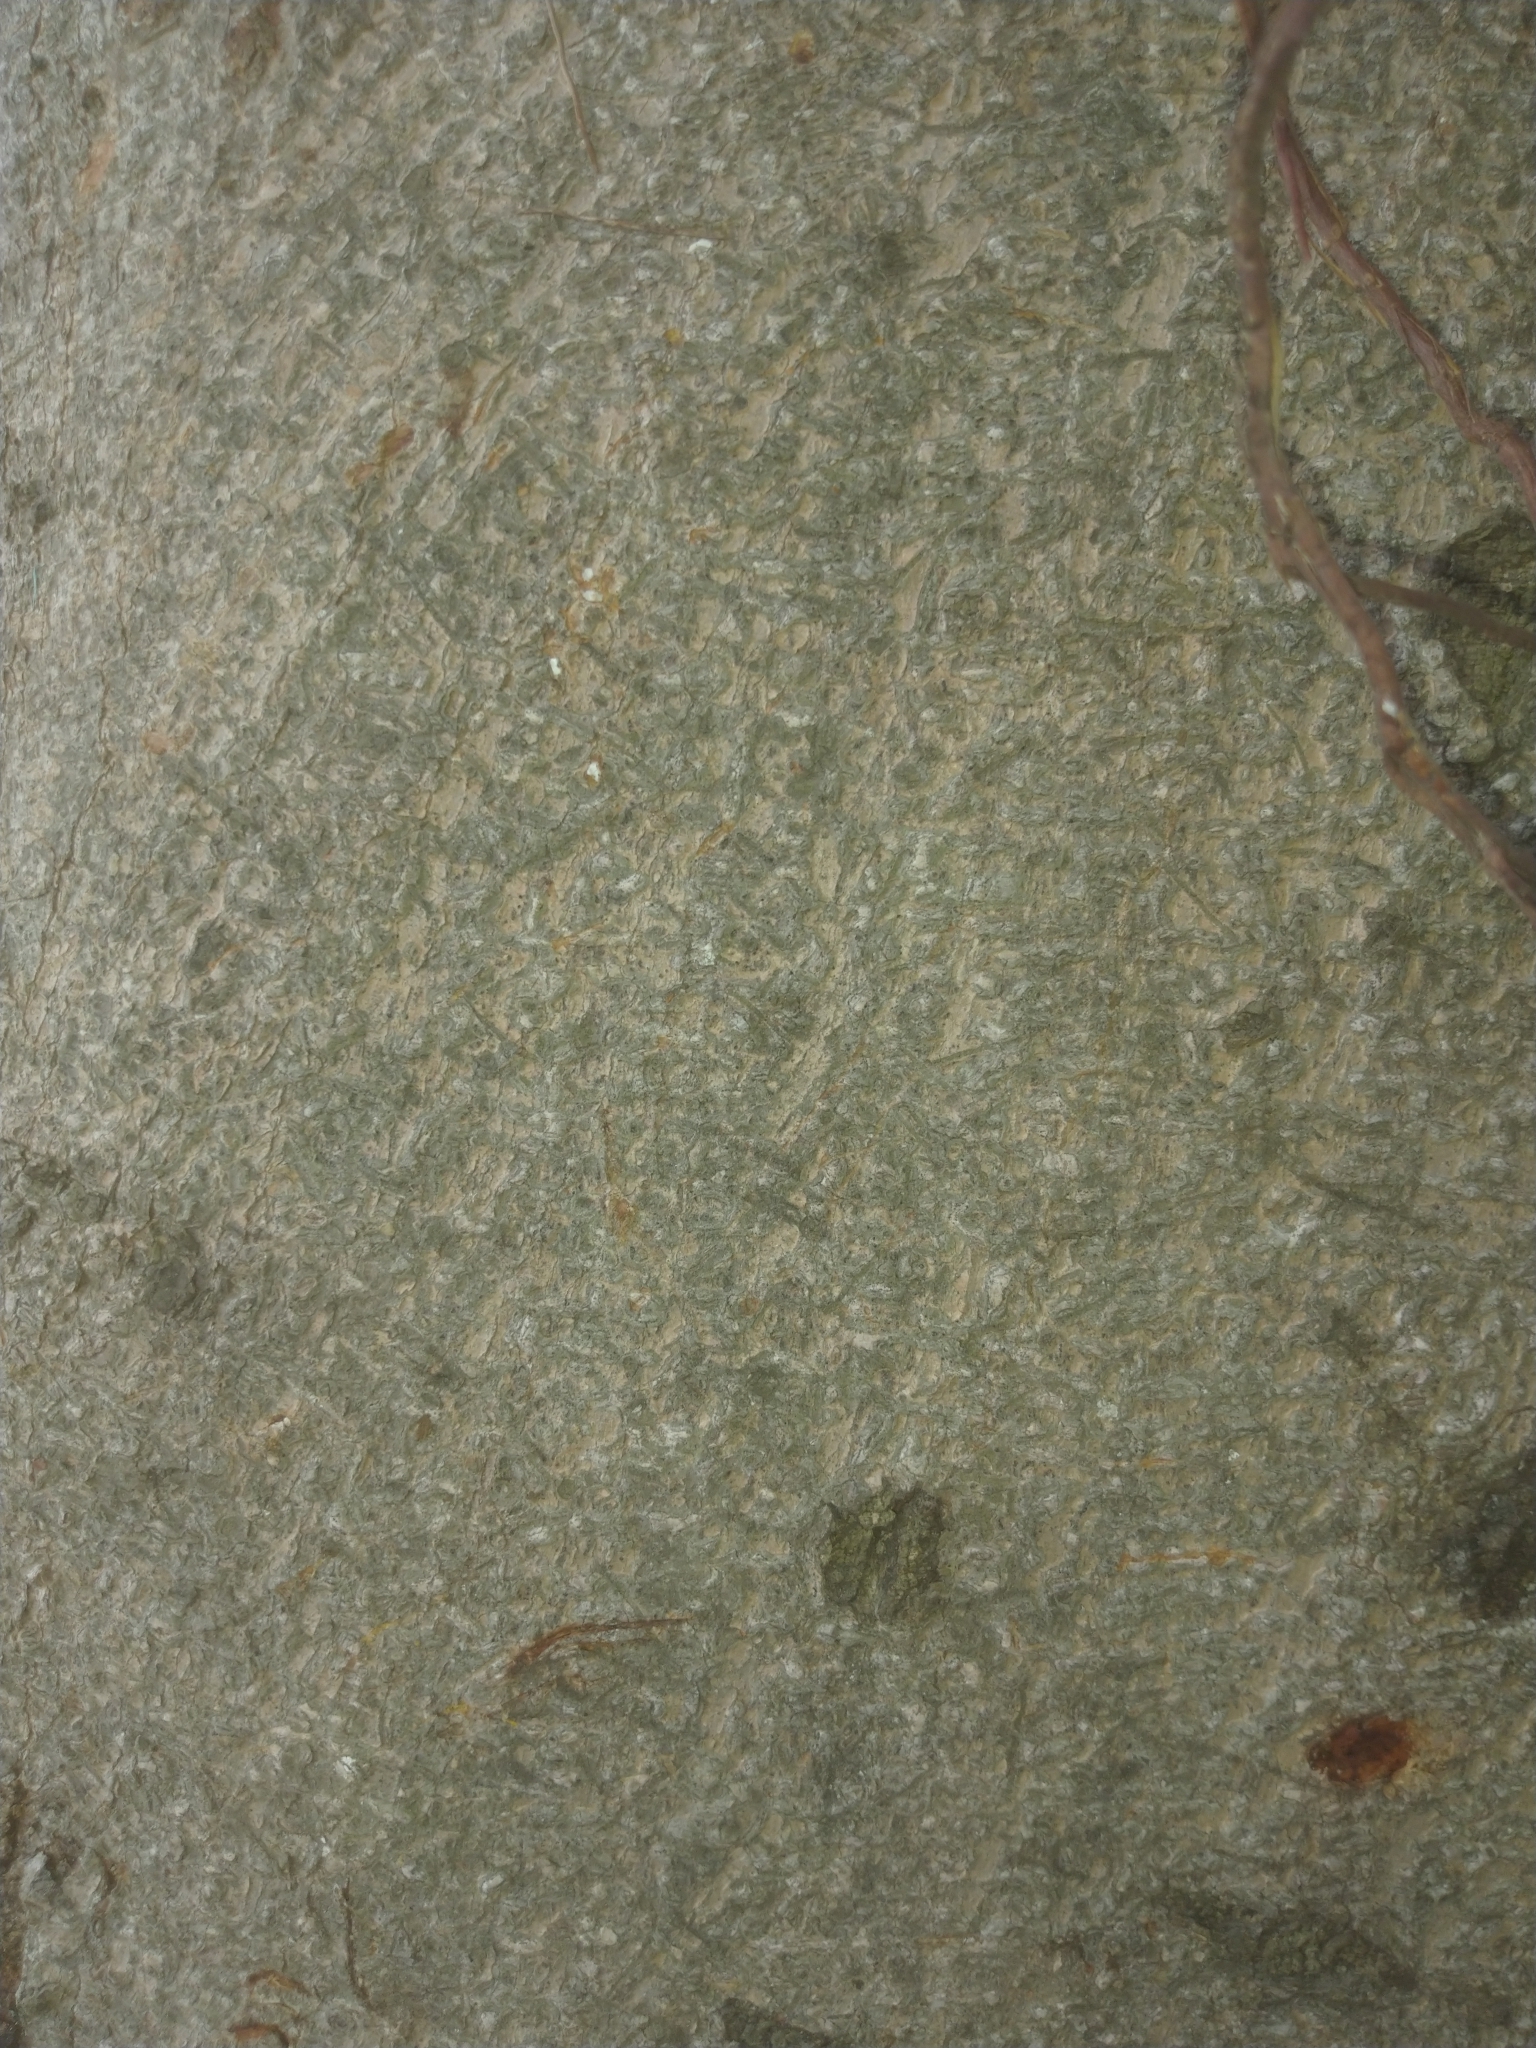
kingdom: Plantae
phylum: Tracheophyta
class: Magnoliopsida
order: Rosales
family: Moraceae
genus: Ficus
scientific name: Ficus microcarpa
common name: Chinese banyan
